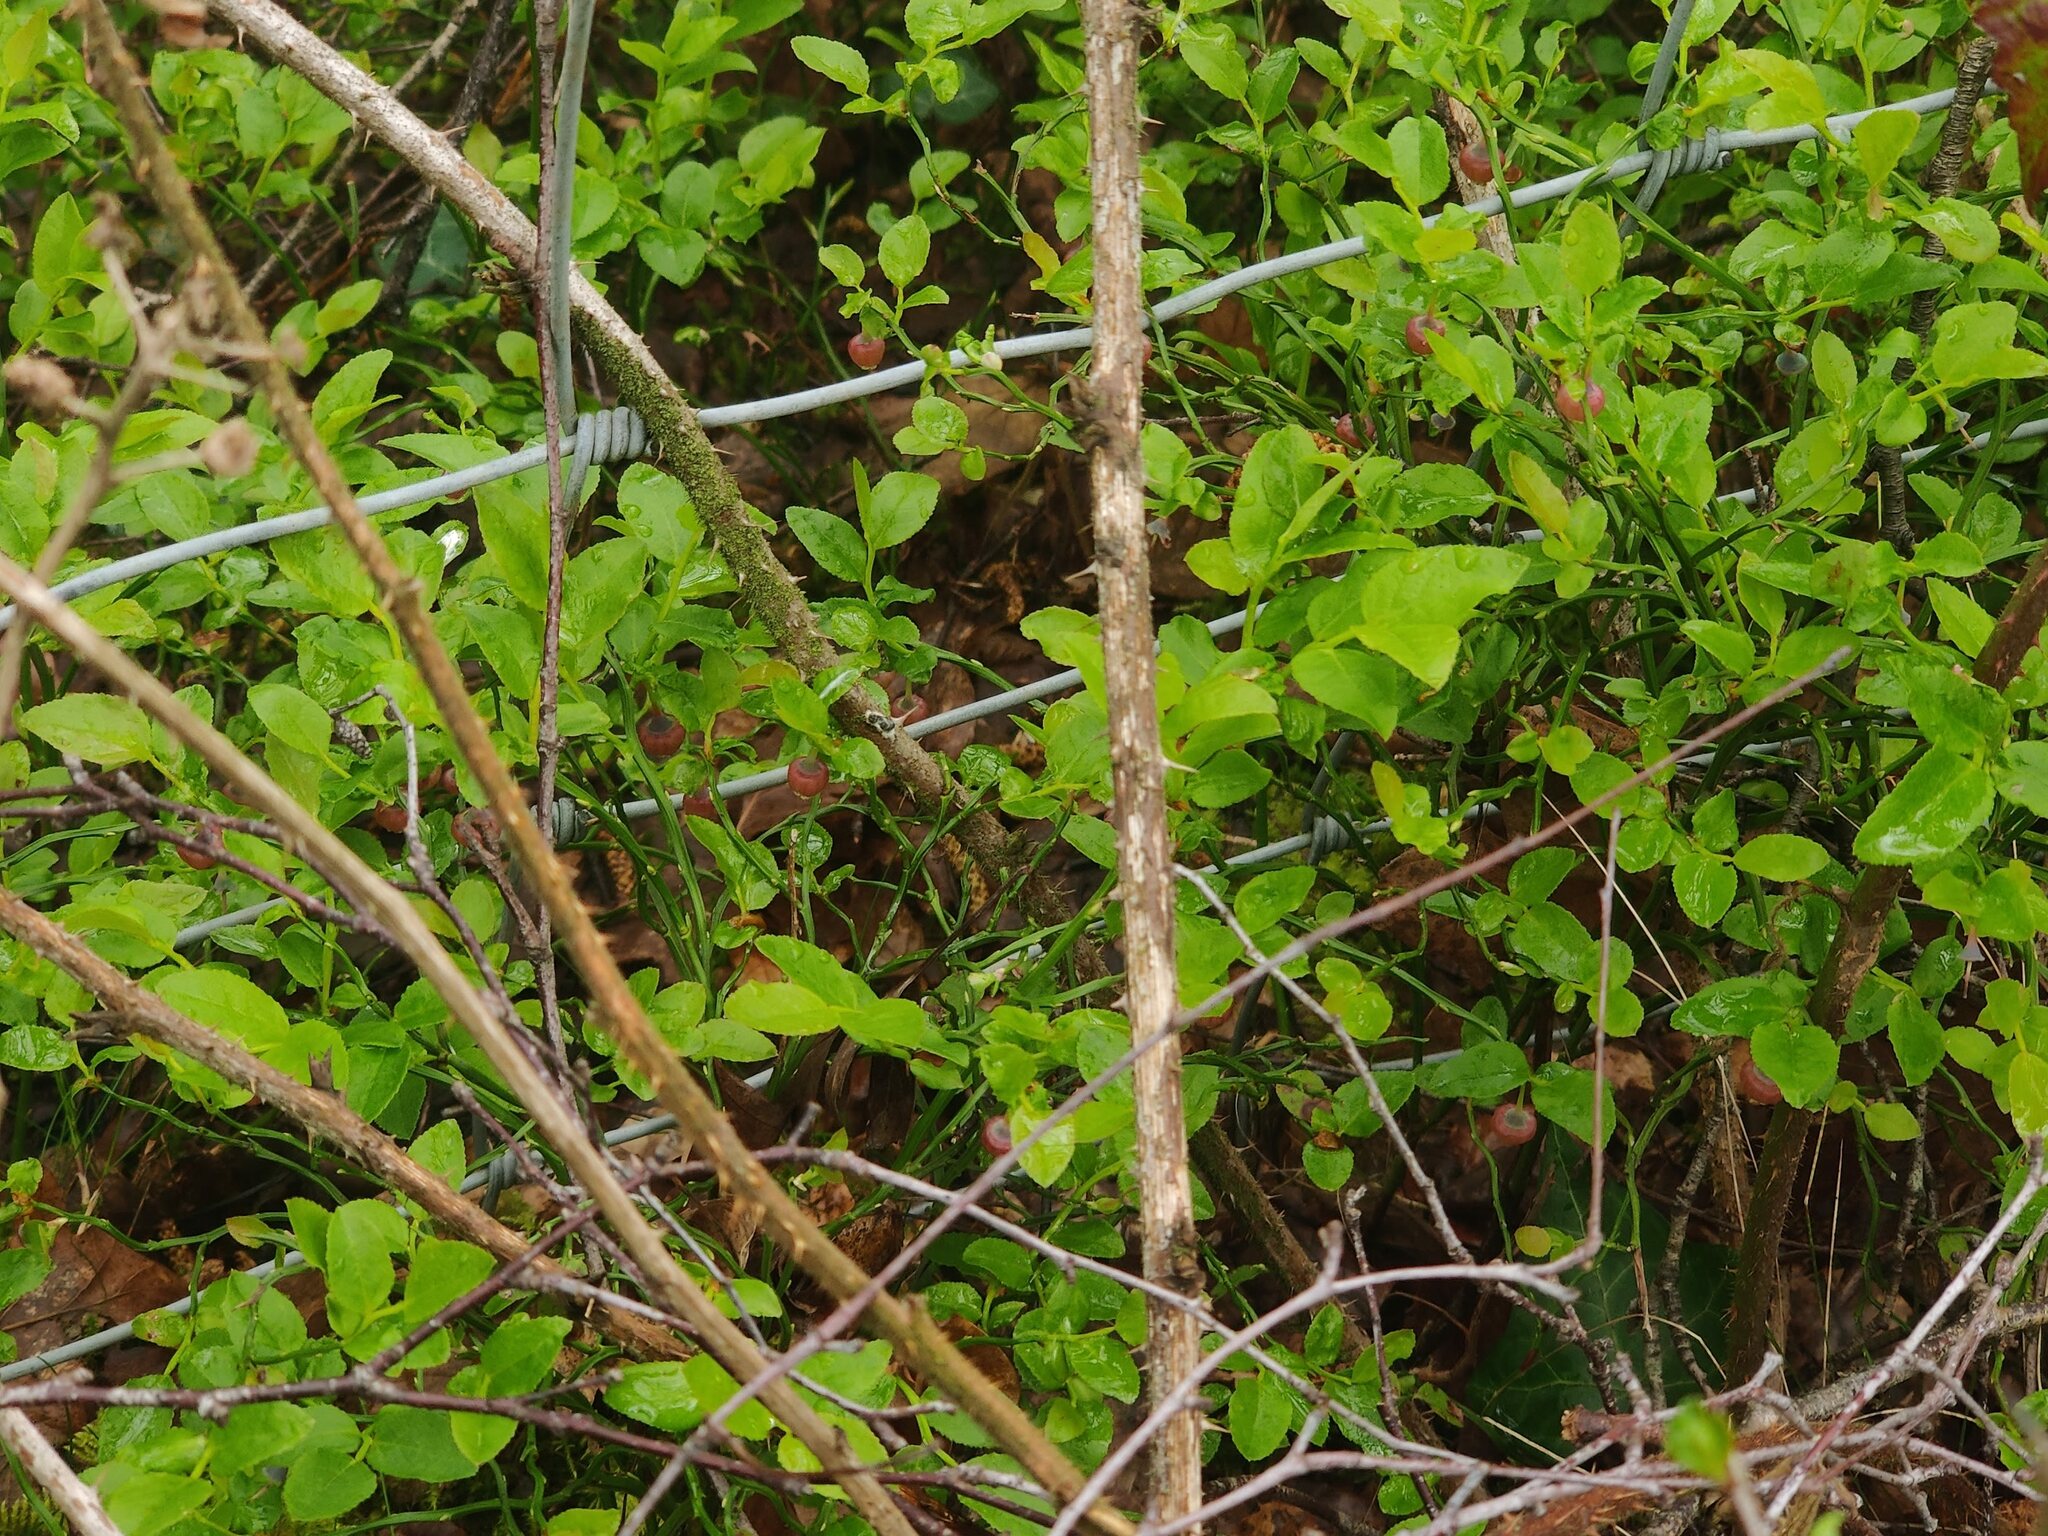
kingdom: Plantae
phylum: Tracheophyta
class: Magnoliopsida
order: Ericales
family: Ericaceae
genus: Vaccinium
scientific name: Vaccinium myrtillus
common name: Bilberry
